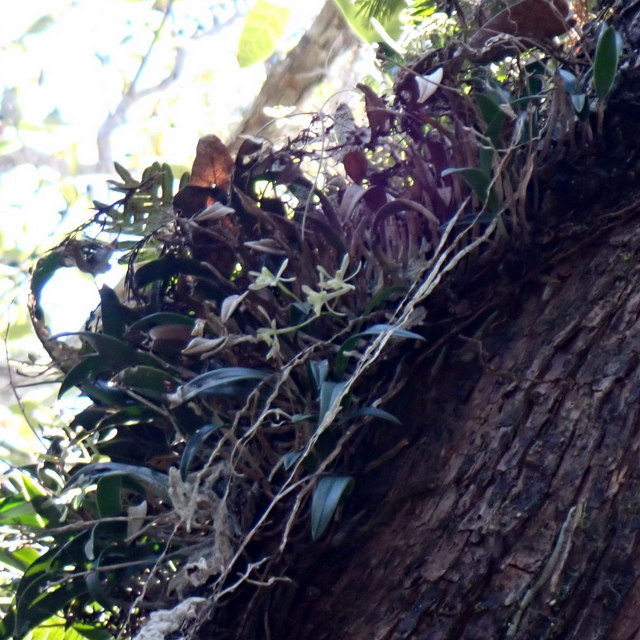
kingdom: Plantae
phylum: Tracheophyta
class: Liliopsida
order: Asparagales
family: Orchidaceae
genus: Epidendrum
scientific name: Epidendrum conopseum
